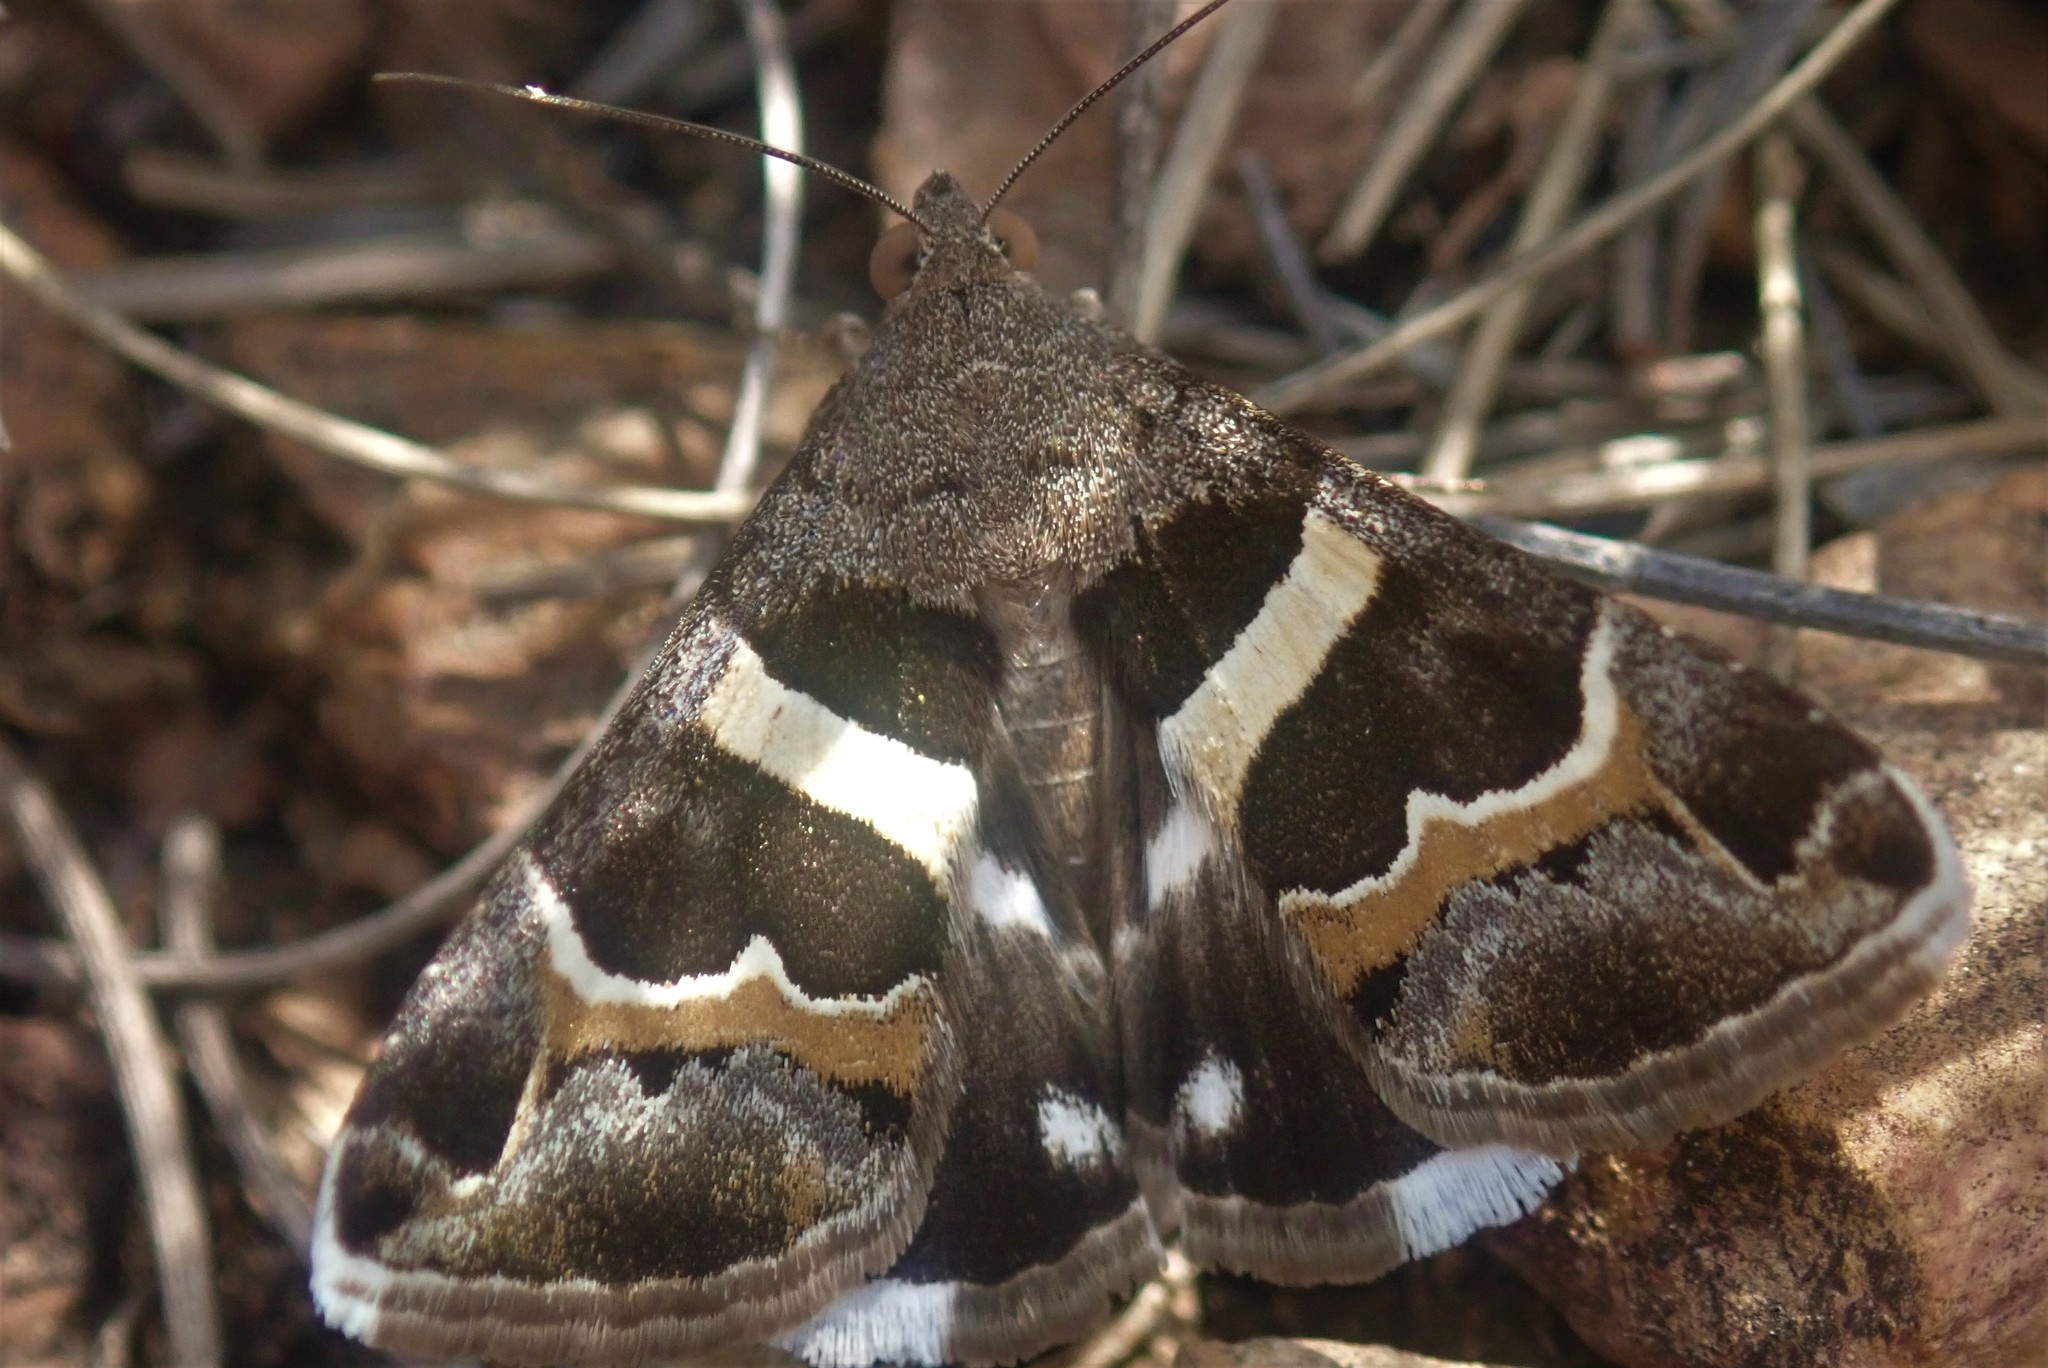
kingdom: Animalia
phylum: Arthropoda
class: Insecta
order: Lepidoptera
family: Erebidae
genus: Grammodes
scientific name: Grammodes stolida
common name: Geometrician
